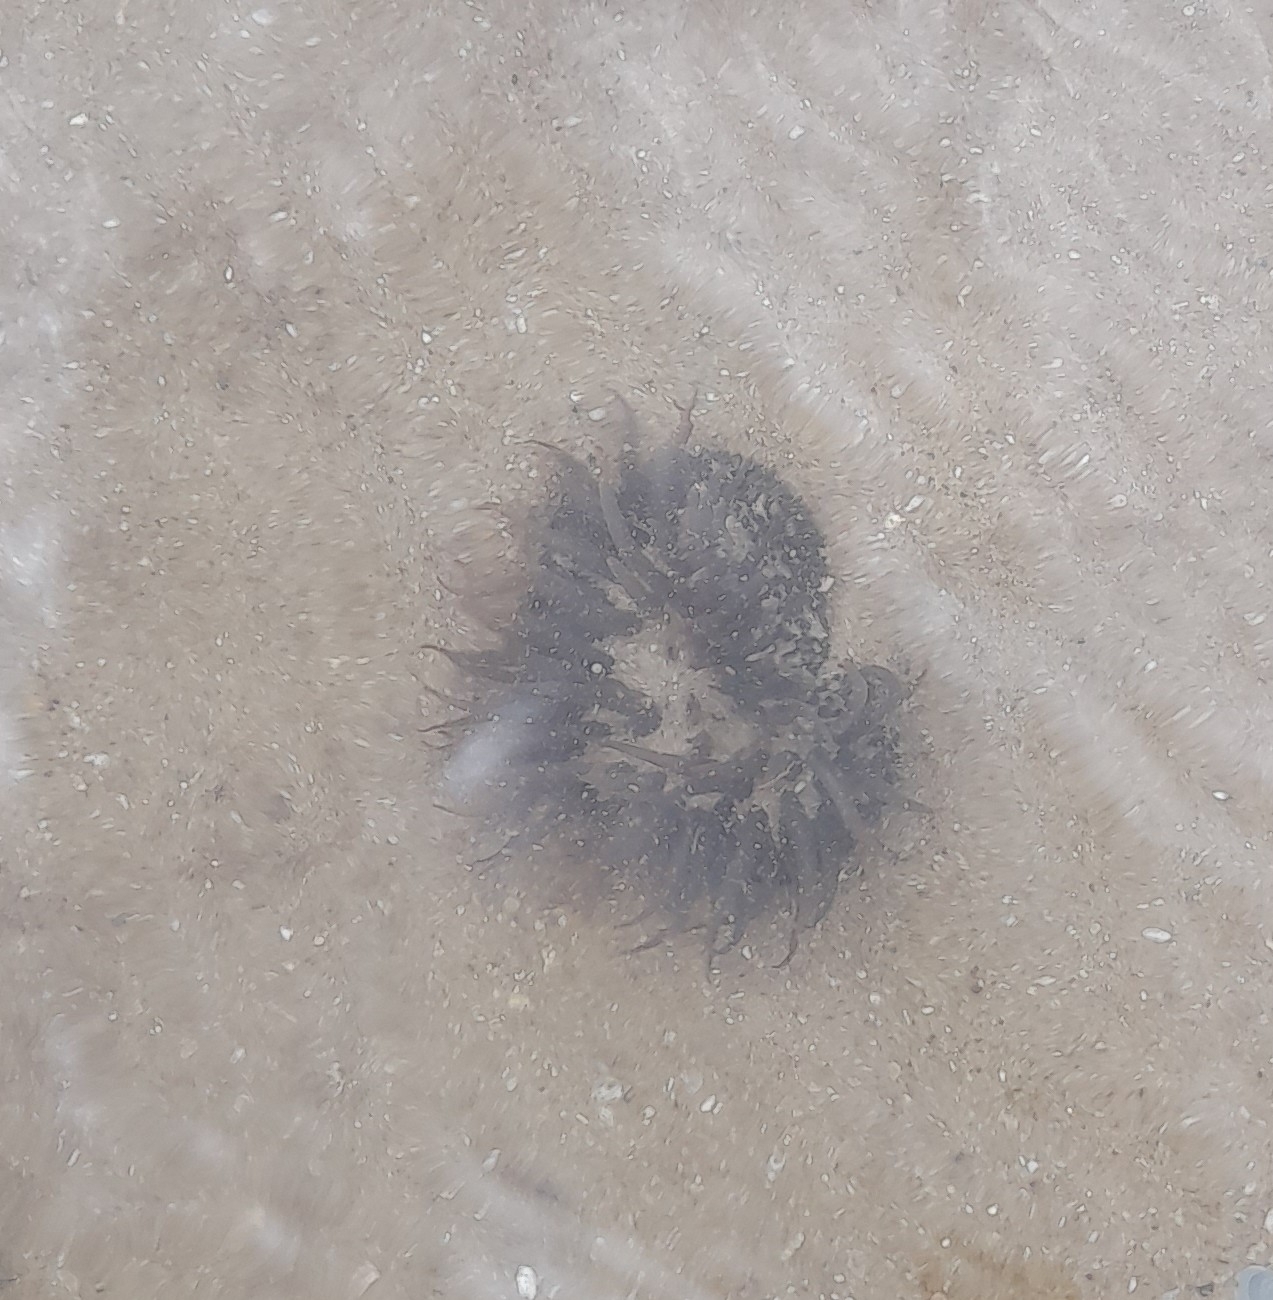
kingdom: Animalia
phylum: Cnidaria
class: Anthozoa
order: Actiniaria
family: Actiniidae
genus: Bunodosoma
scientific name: Bunodosoma cangicum
